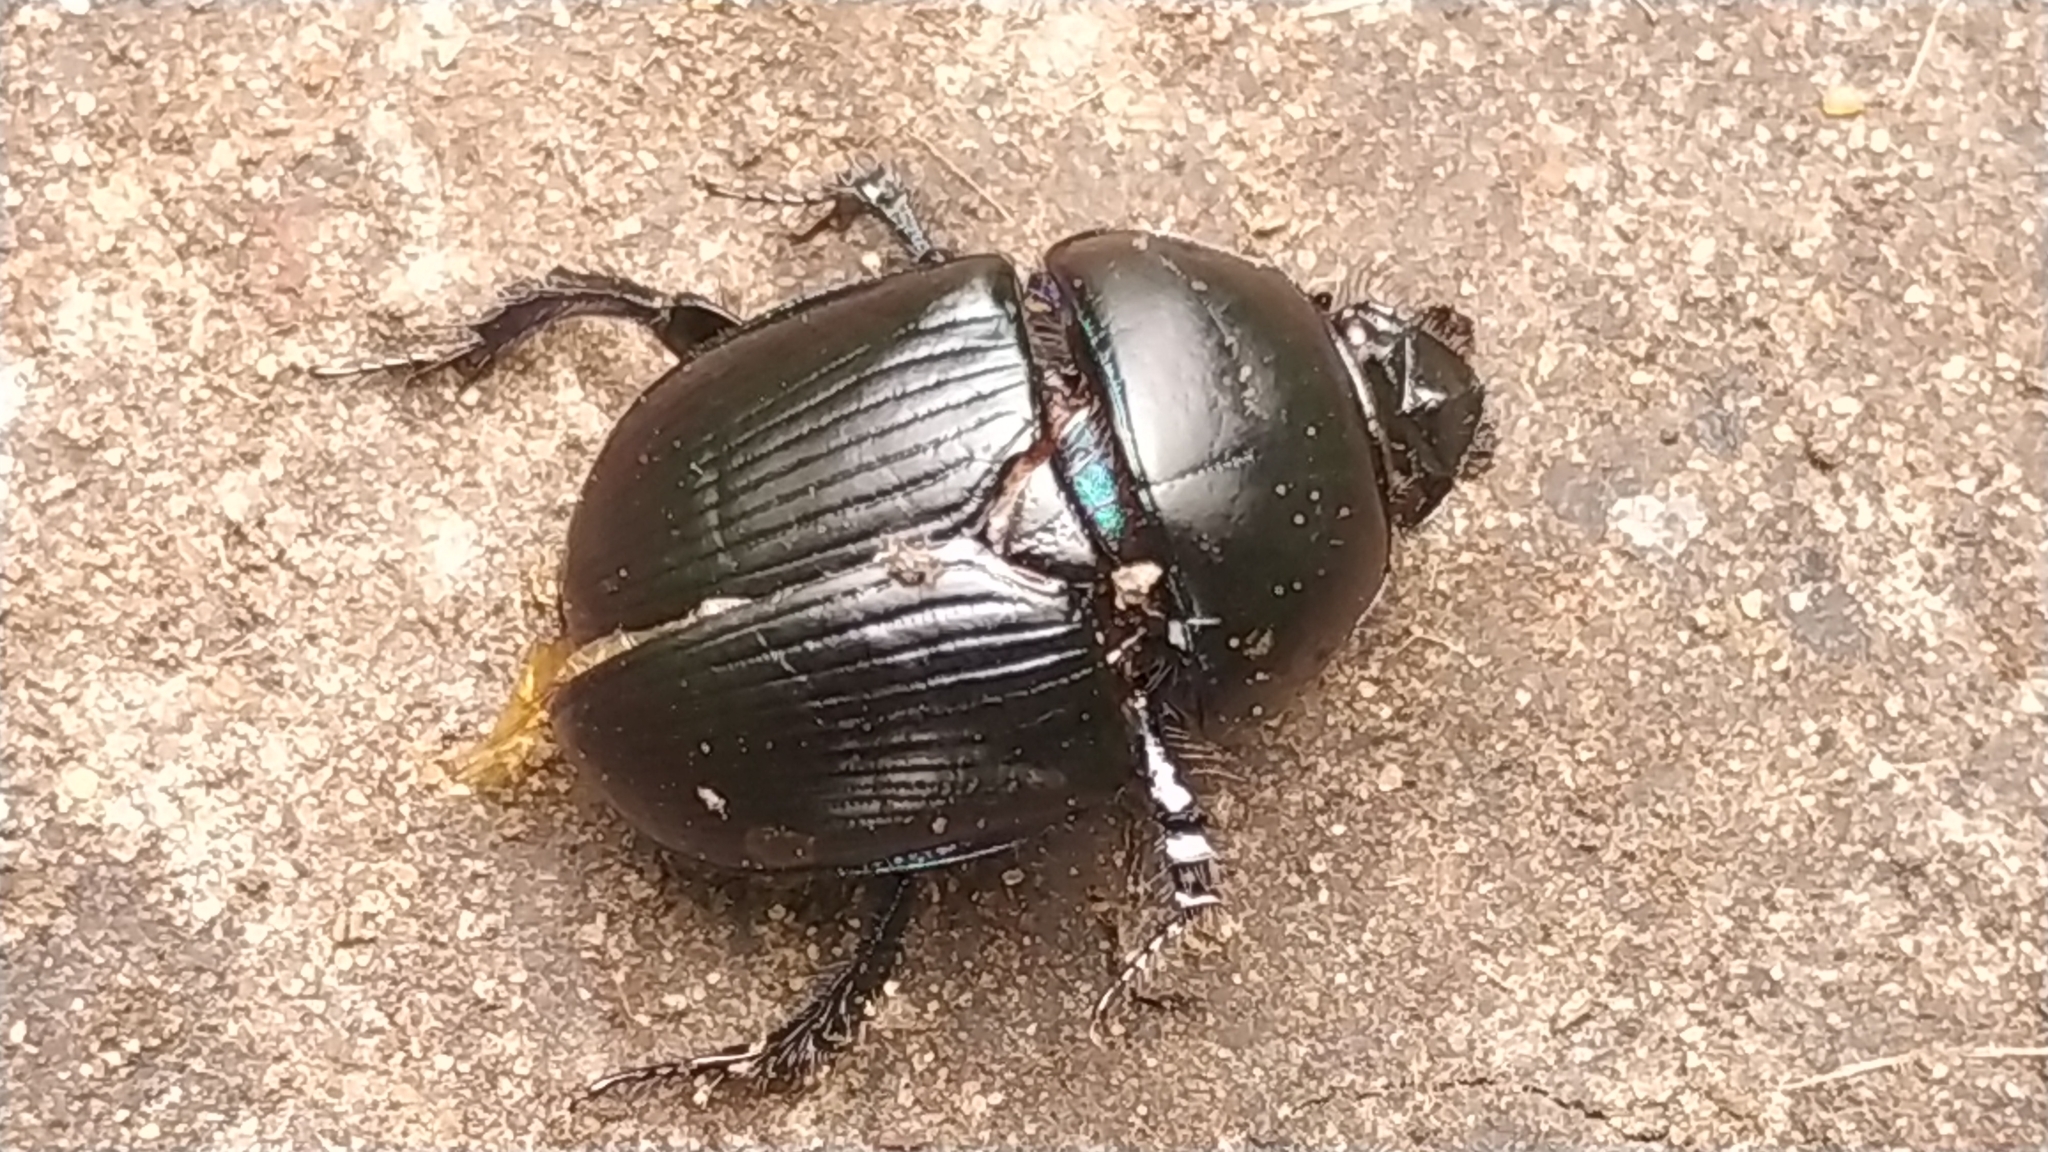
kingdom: Animalia
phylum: Arthropoda
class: Insecta
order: Coleoptera
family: Geotrupidae
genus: Anoplotrupes
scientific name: Anoplotrupes stercorosus
